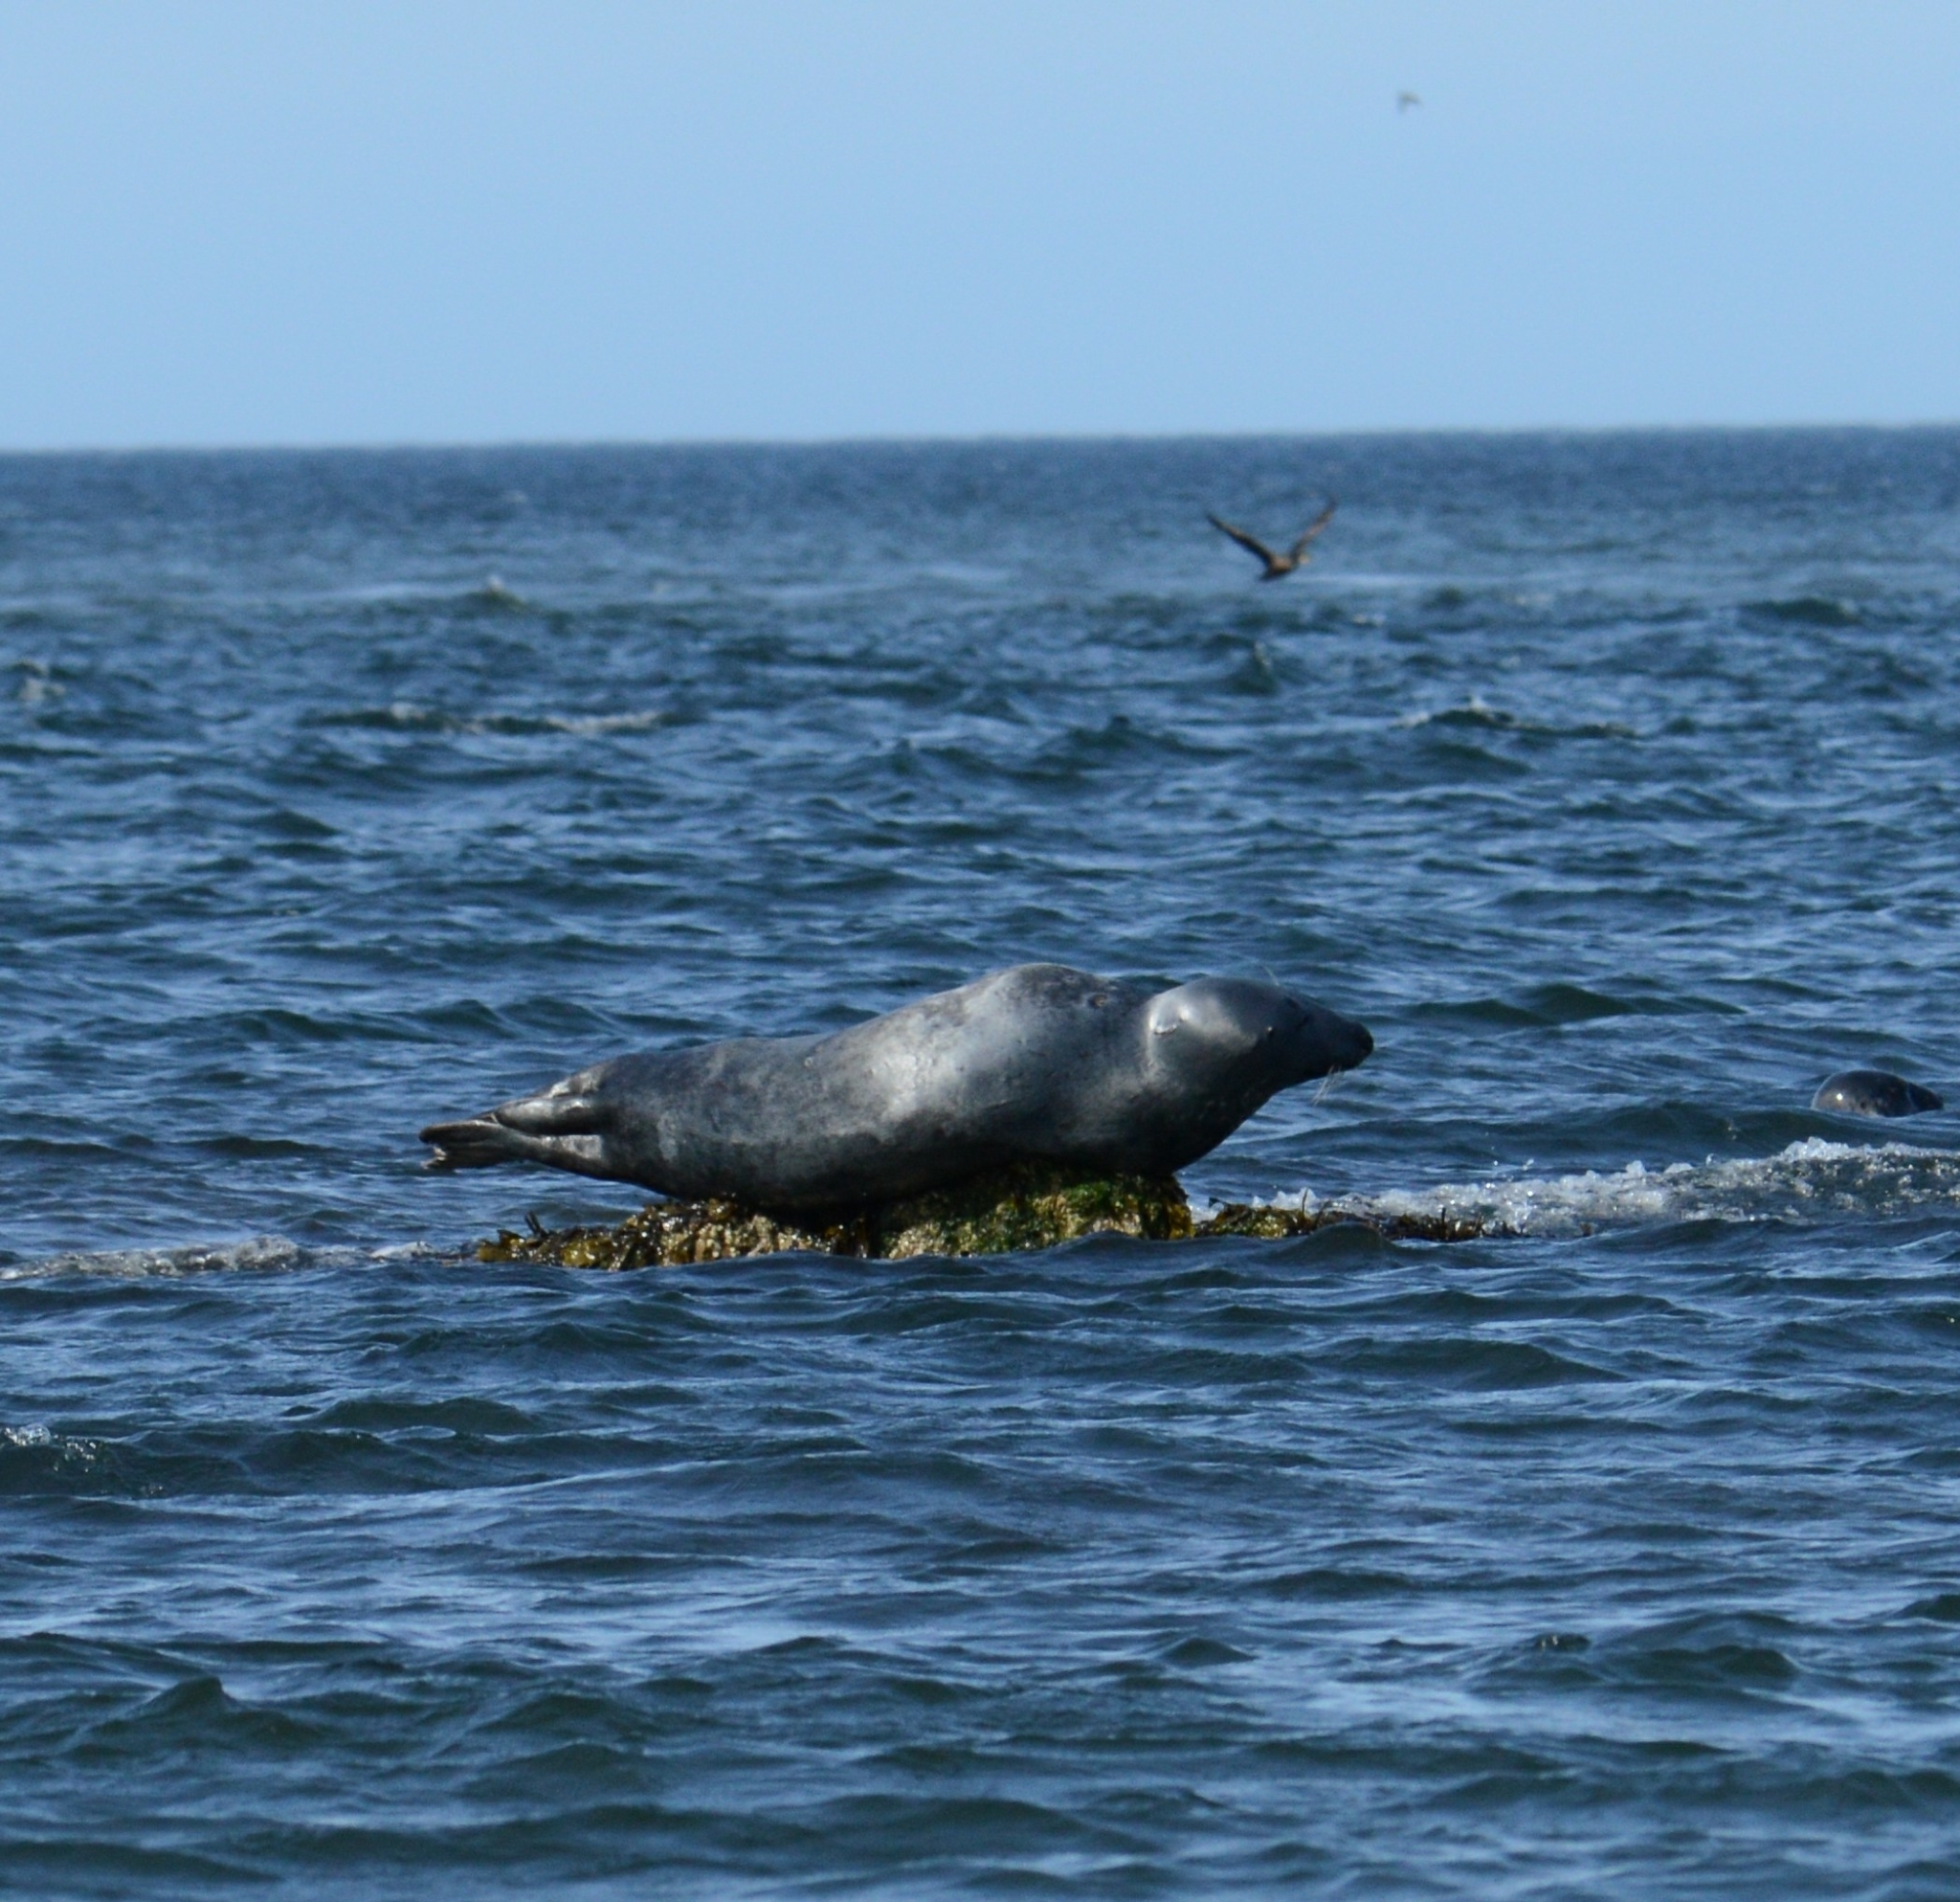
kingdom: Animalia
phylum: Chordata
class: Mammalia
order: Carnivora
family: Phocidae
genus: Halichoerus
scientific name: Halichoerus grypus
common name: Grey seal
